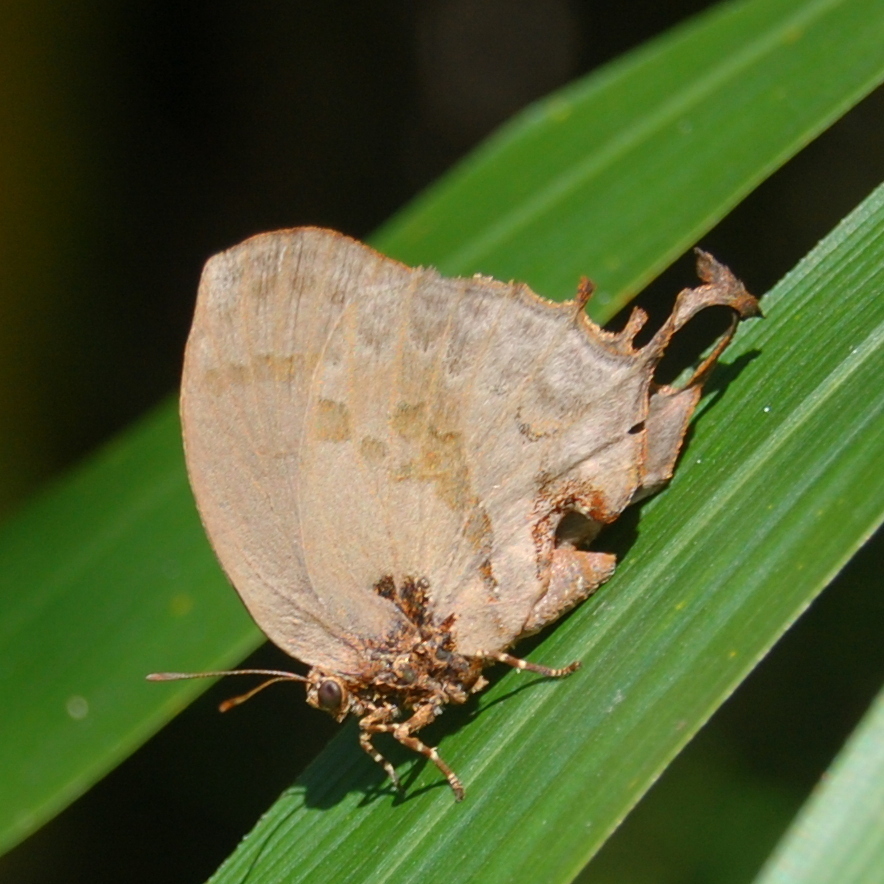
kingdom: Animalia
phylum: Arthropoda
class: Insecta
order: Lepidoptera
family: Lycaenidae
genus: Evenus
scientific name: Evenus
